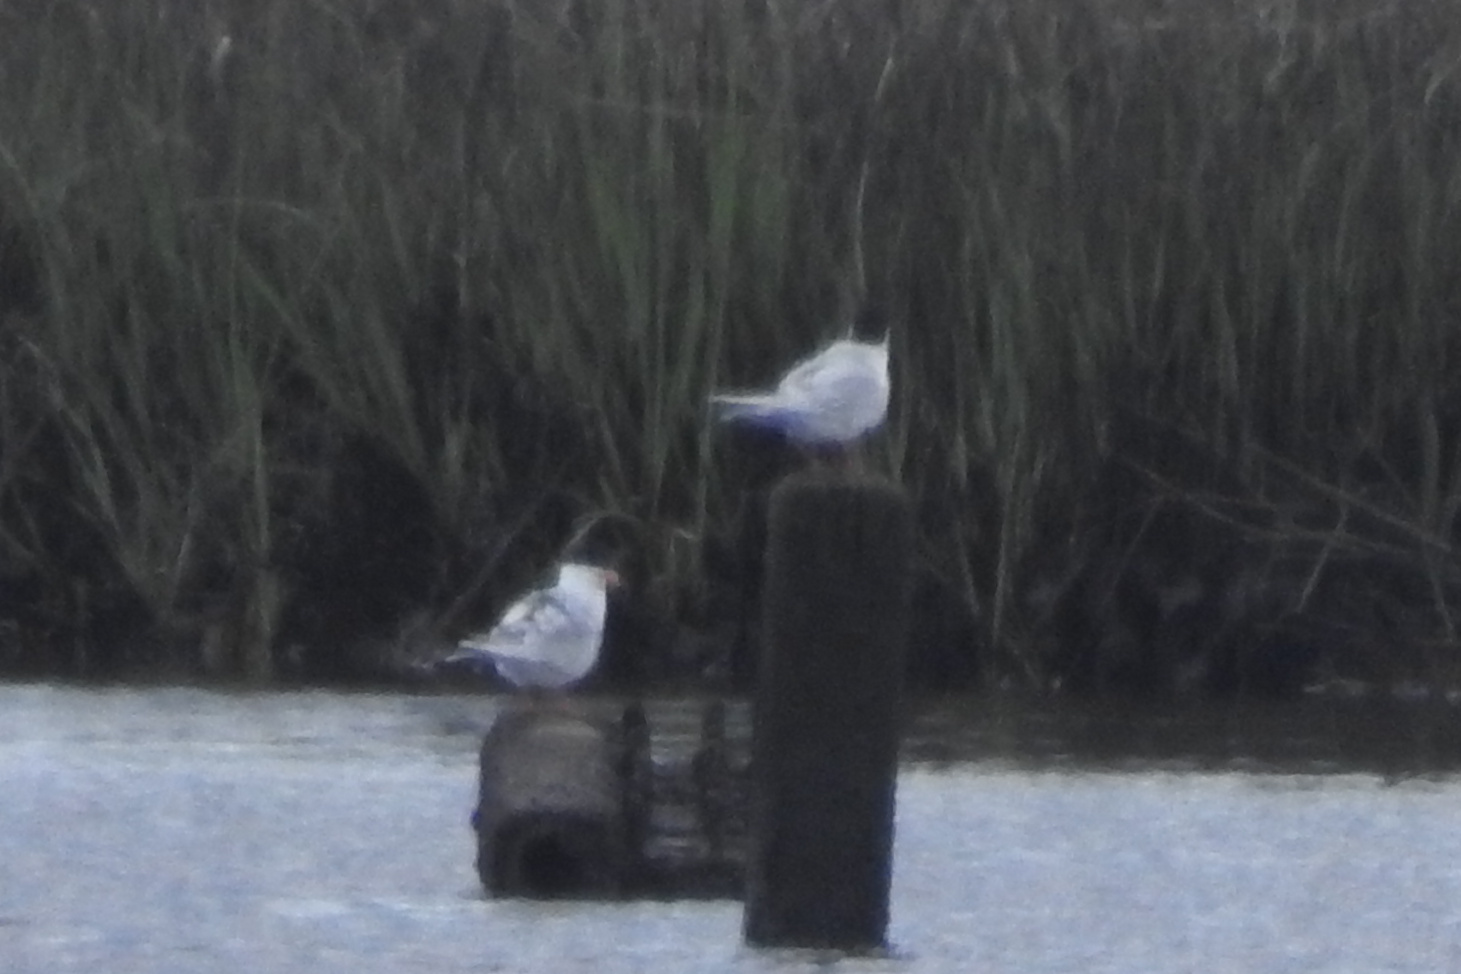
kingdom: Animalia
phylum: Chordata
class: Aves
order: Charadriiformes
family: Laridae
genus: Sterna
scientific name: Sterna forsteri
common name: Forster's tern
